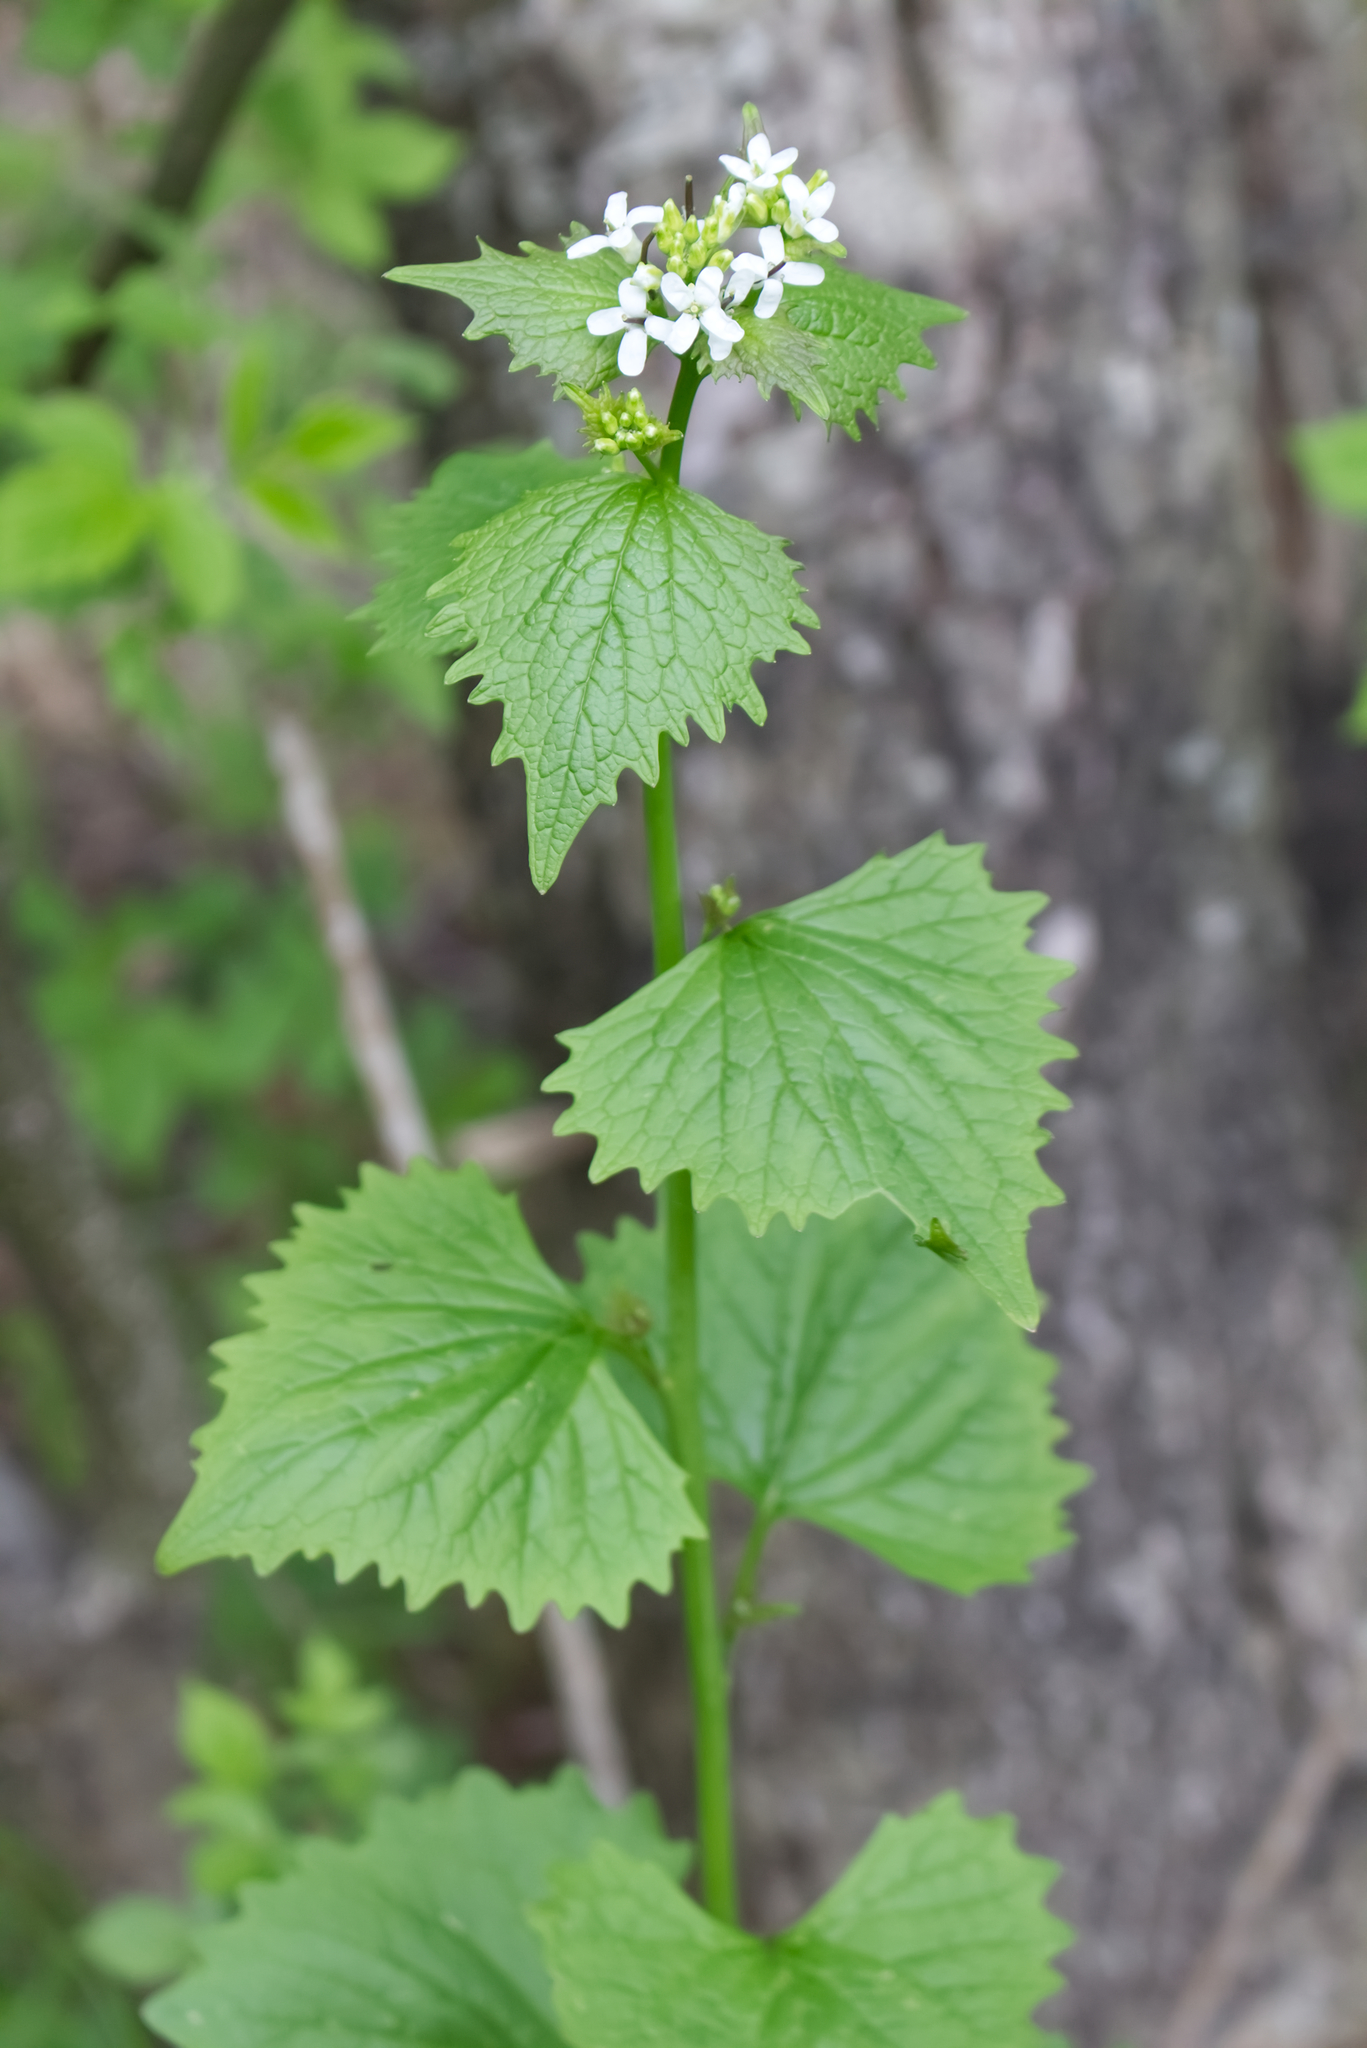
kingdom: Plantae
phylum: Tracheophyta
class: Magnoliopsida
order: Brassicales
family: Brassicaceae
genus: Alliaria
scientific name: Alliaria petiolata
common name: Garlic mustard
